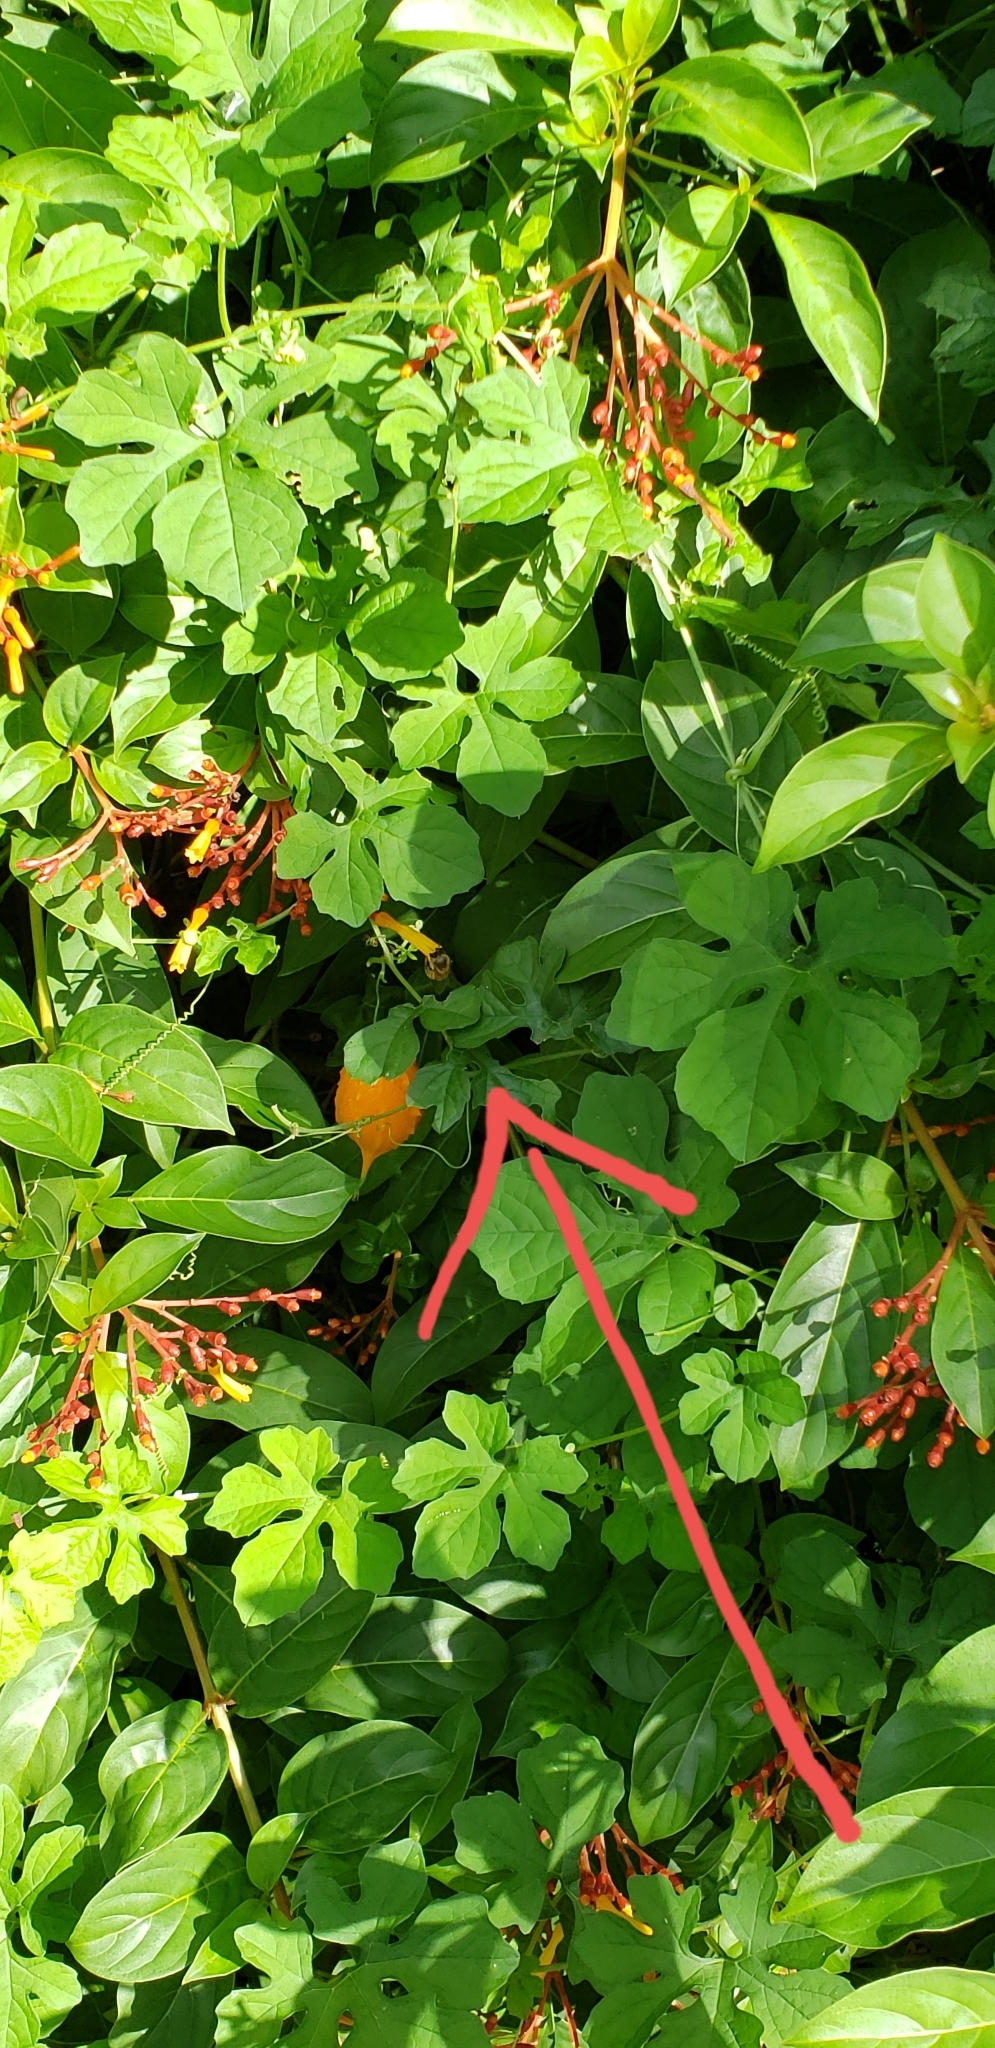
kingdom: Animalia
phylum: Arthropoda
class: Insecta
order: Hymenoptera
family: Apidae
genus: Apis
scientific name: Apis mellifera
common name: Honey bee
